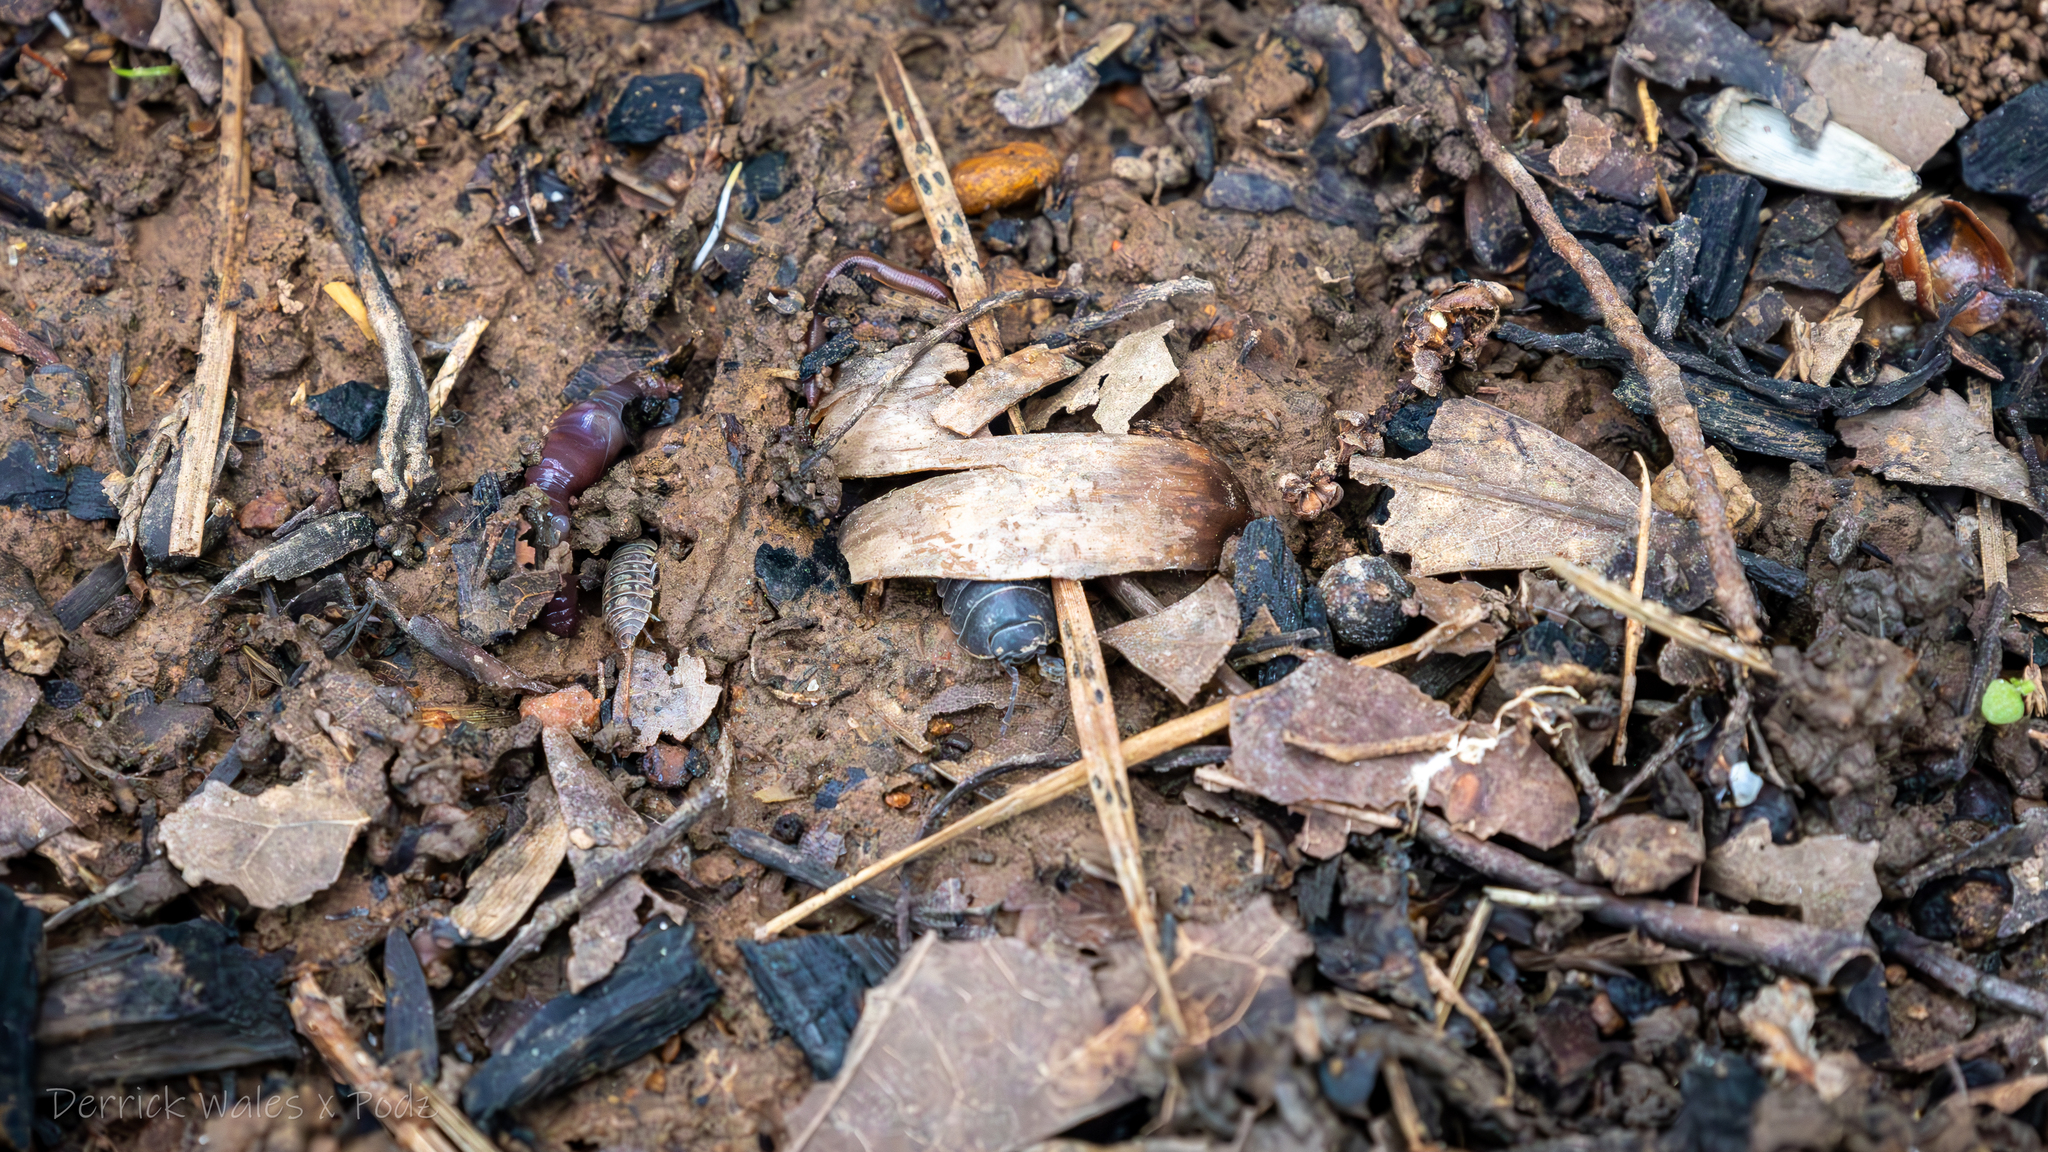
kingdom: Animalia
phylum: Arthropoda
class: Malacostraca
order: Isopoda
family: Armadillidiidae
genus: Armadillidium
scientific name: Armadillidium vulgare
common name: Common pill woodlouse
